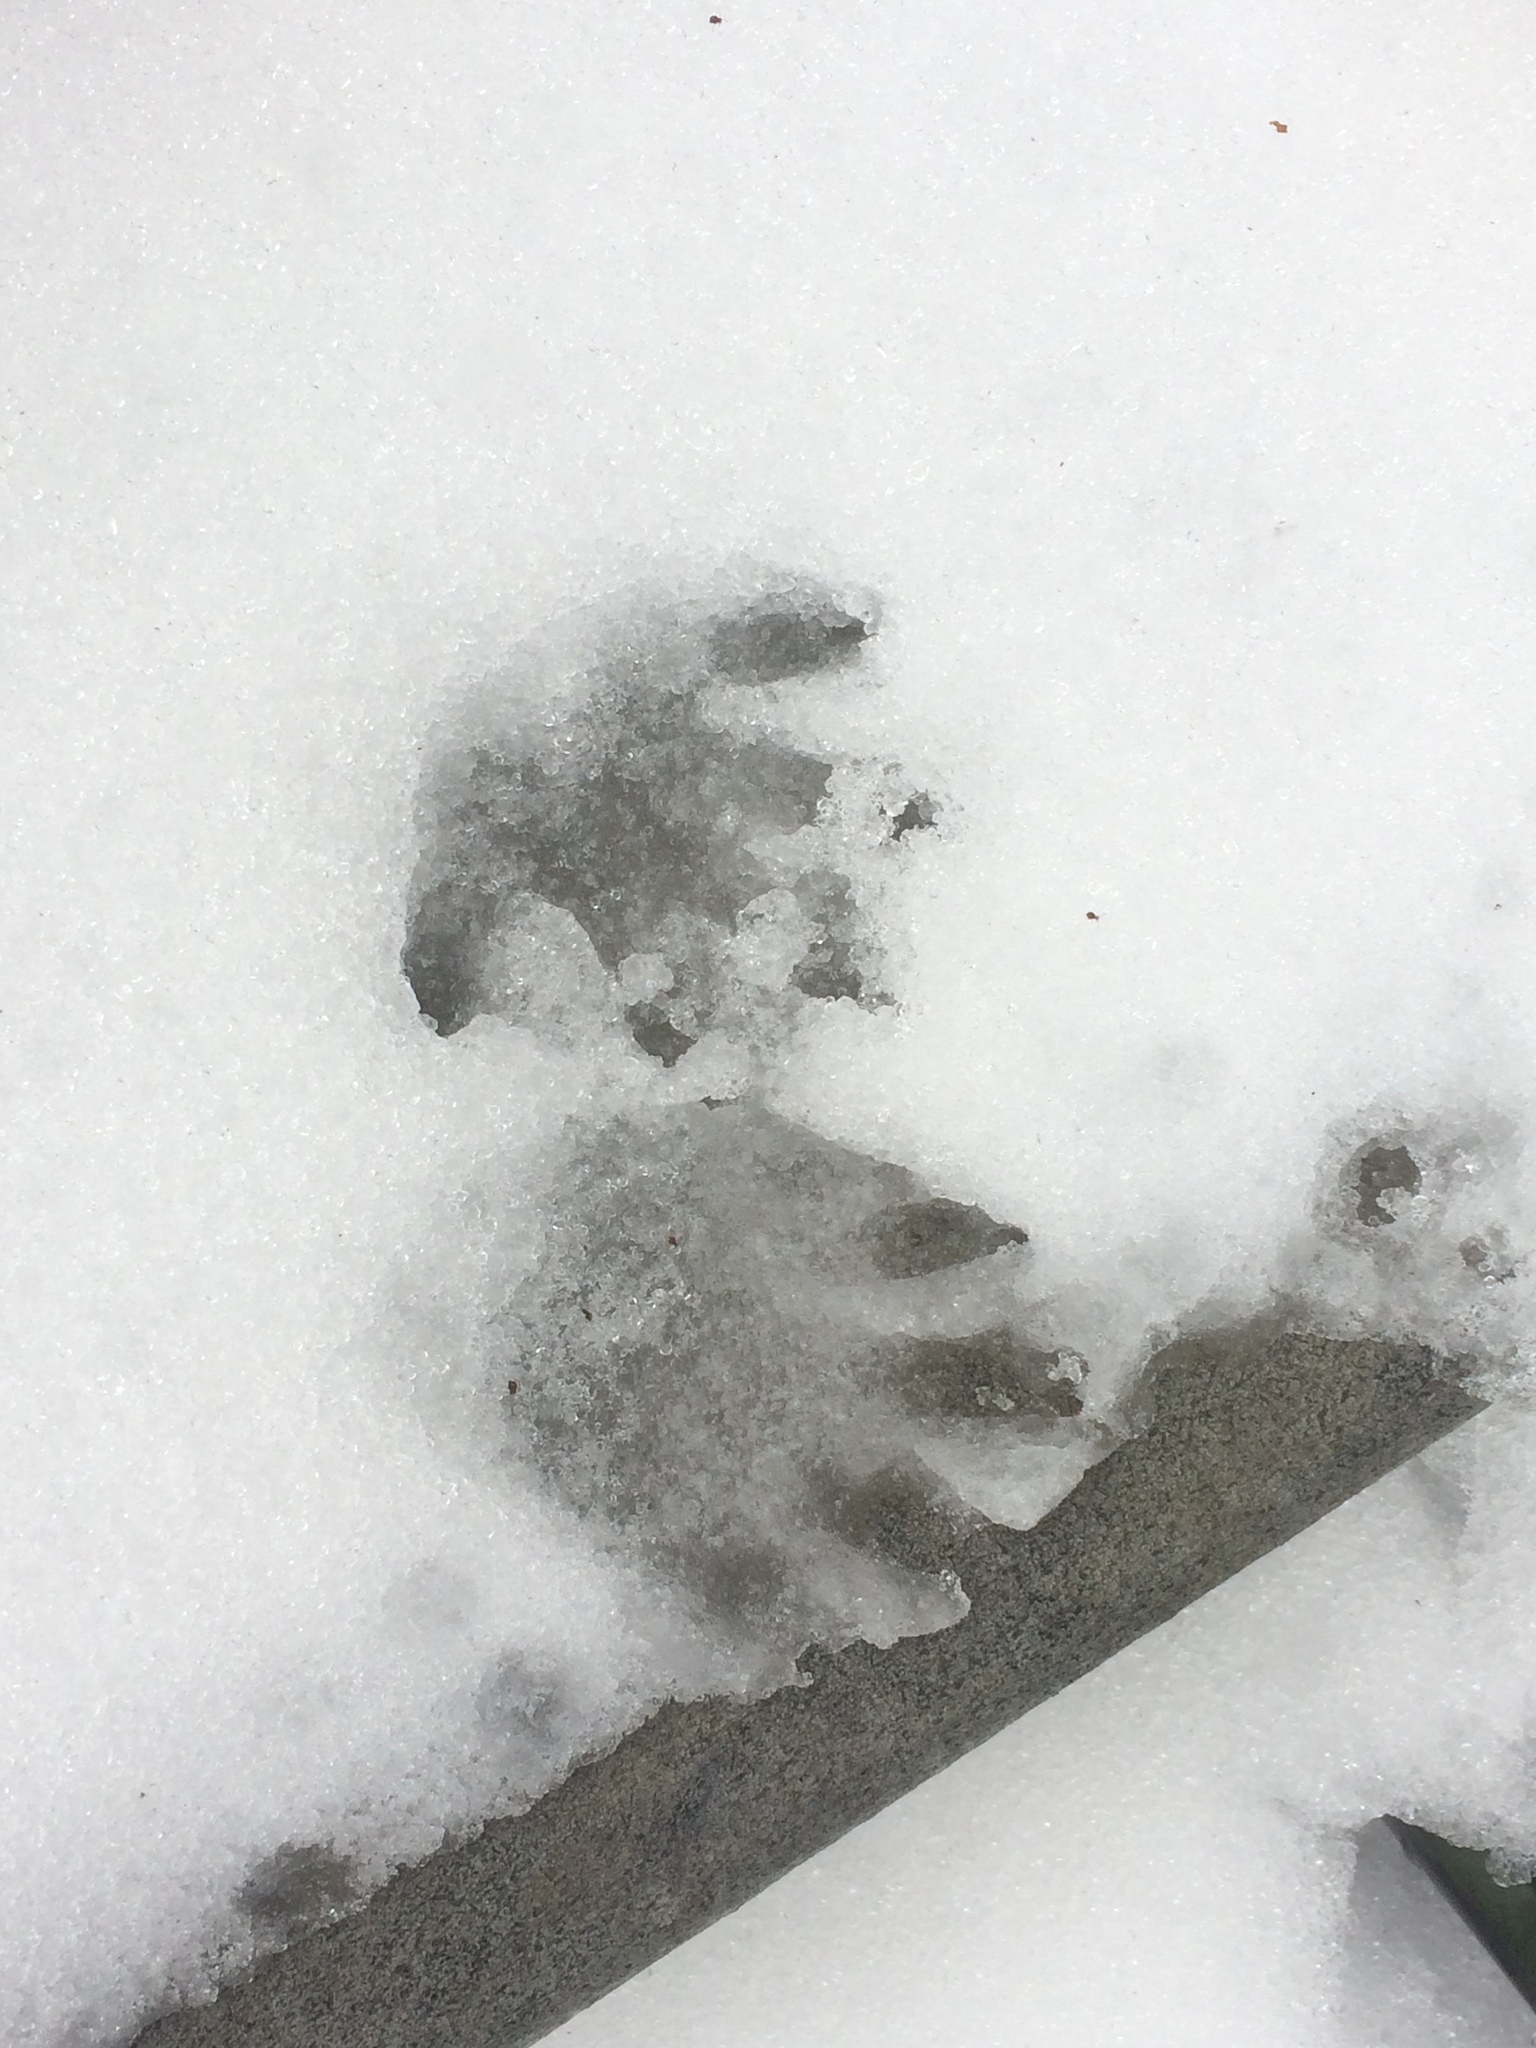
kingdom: Animalia
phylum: Chordata
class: Mammalia
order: Carnivora
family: Procyonidae
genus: Procyon
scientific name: Procyon lotor
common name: Raccoon
